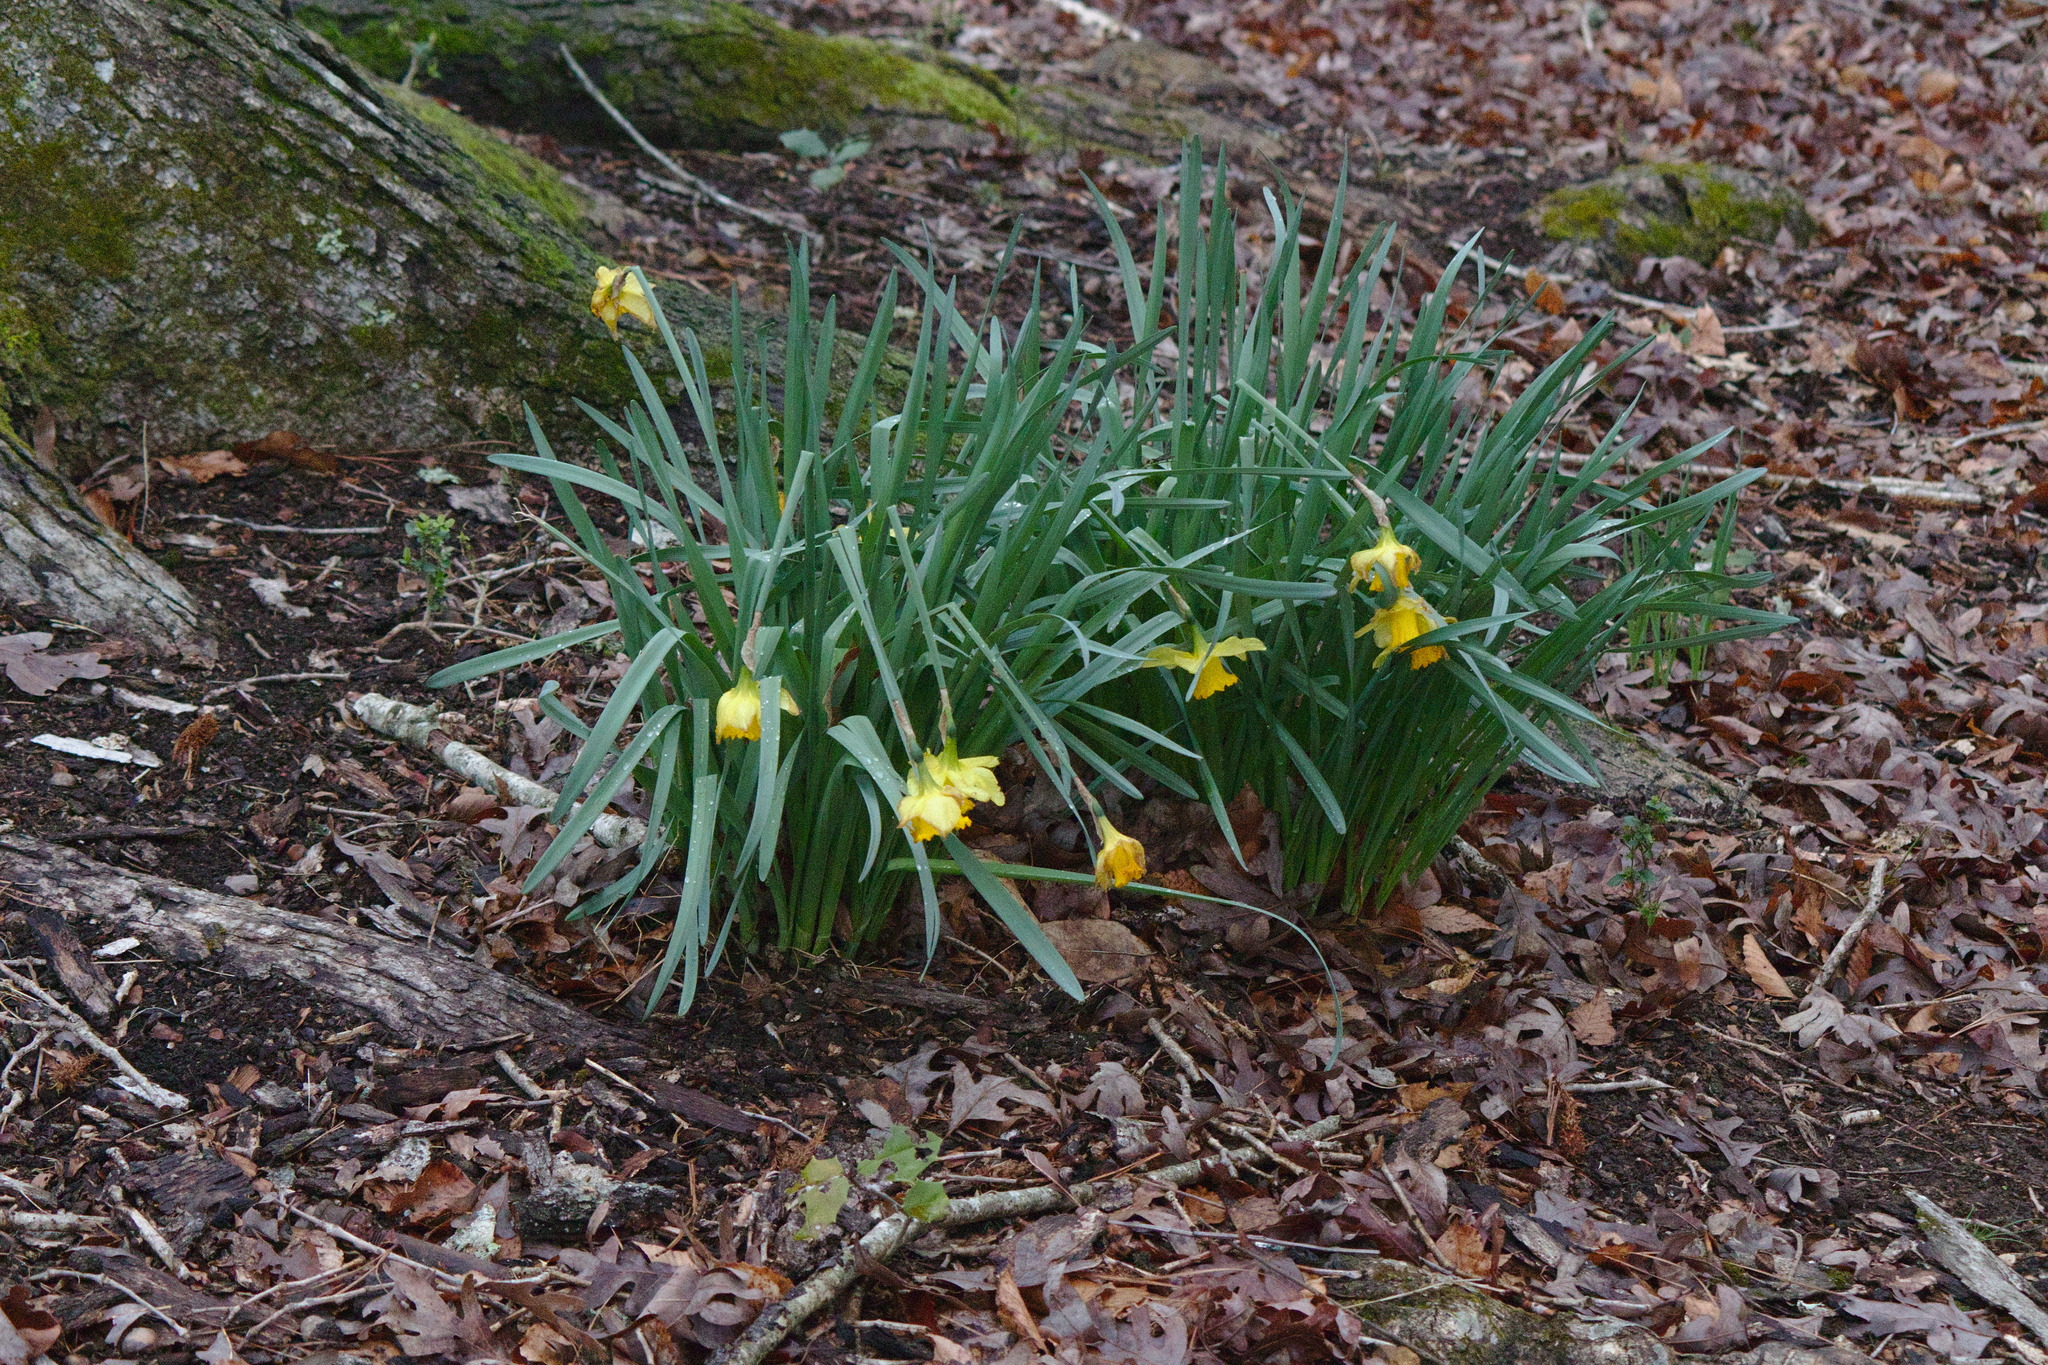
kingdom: Plantae
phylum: Tracheophyta
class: Liliopsida
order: Asparagales
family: Amaryllidaceae
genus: Narcissus
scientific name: Narcissus pseudonarcissus
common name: Daffodil
